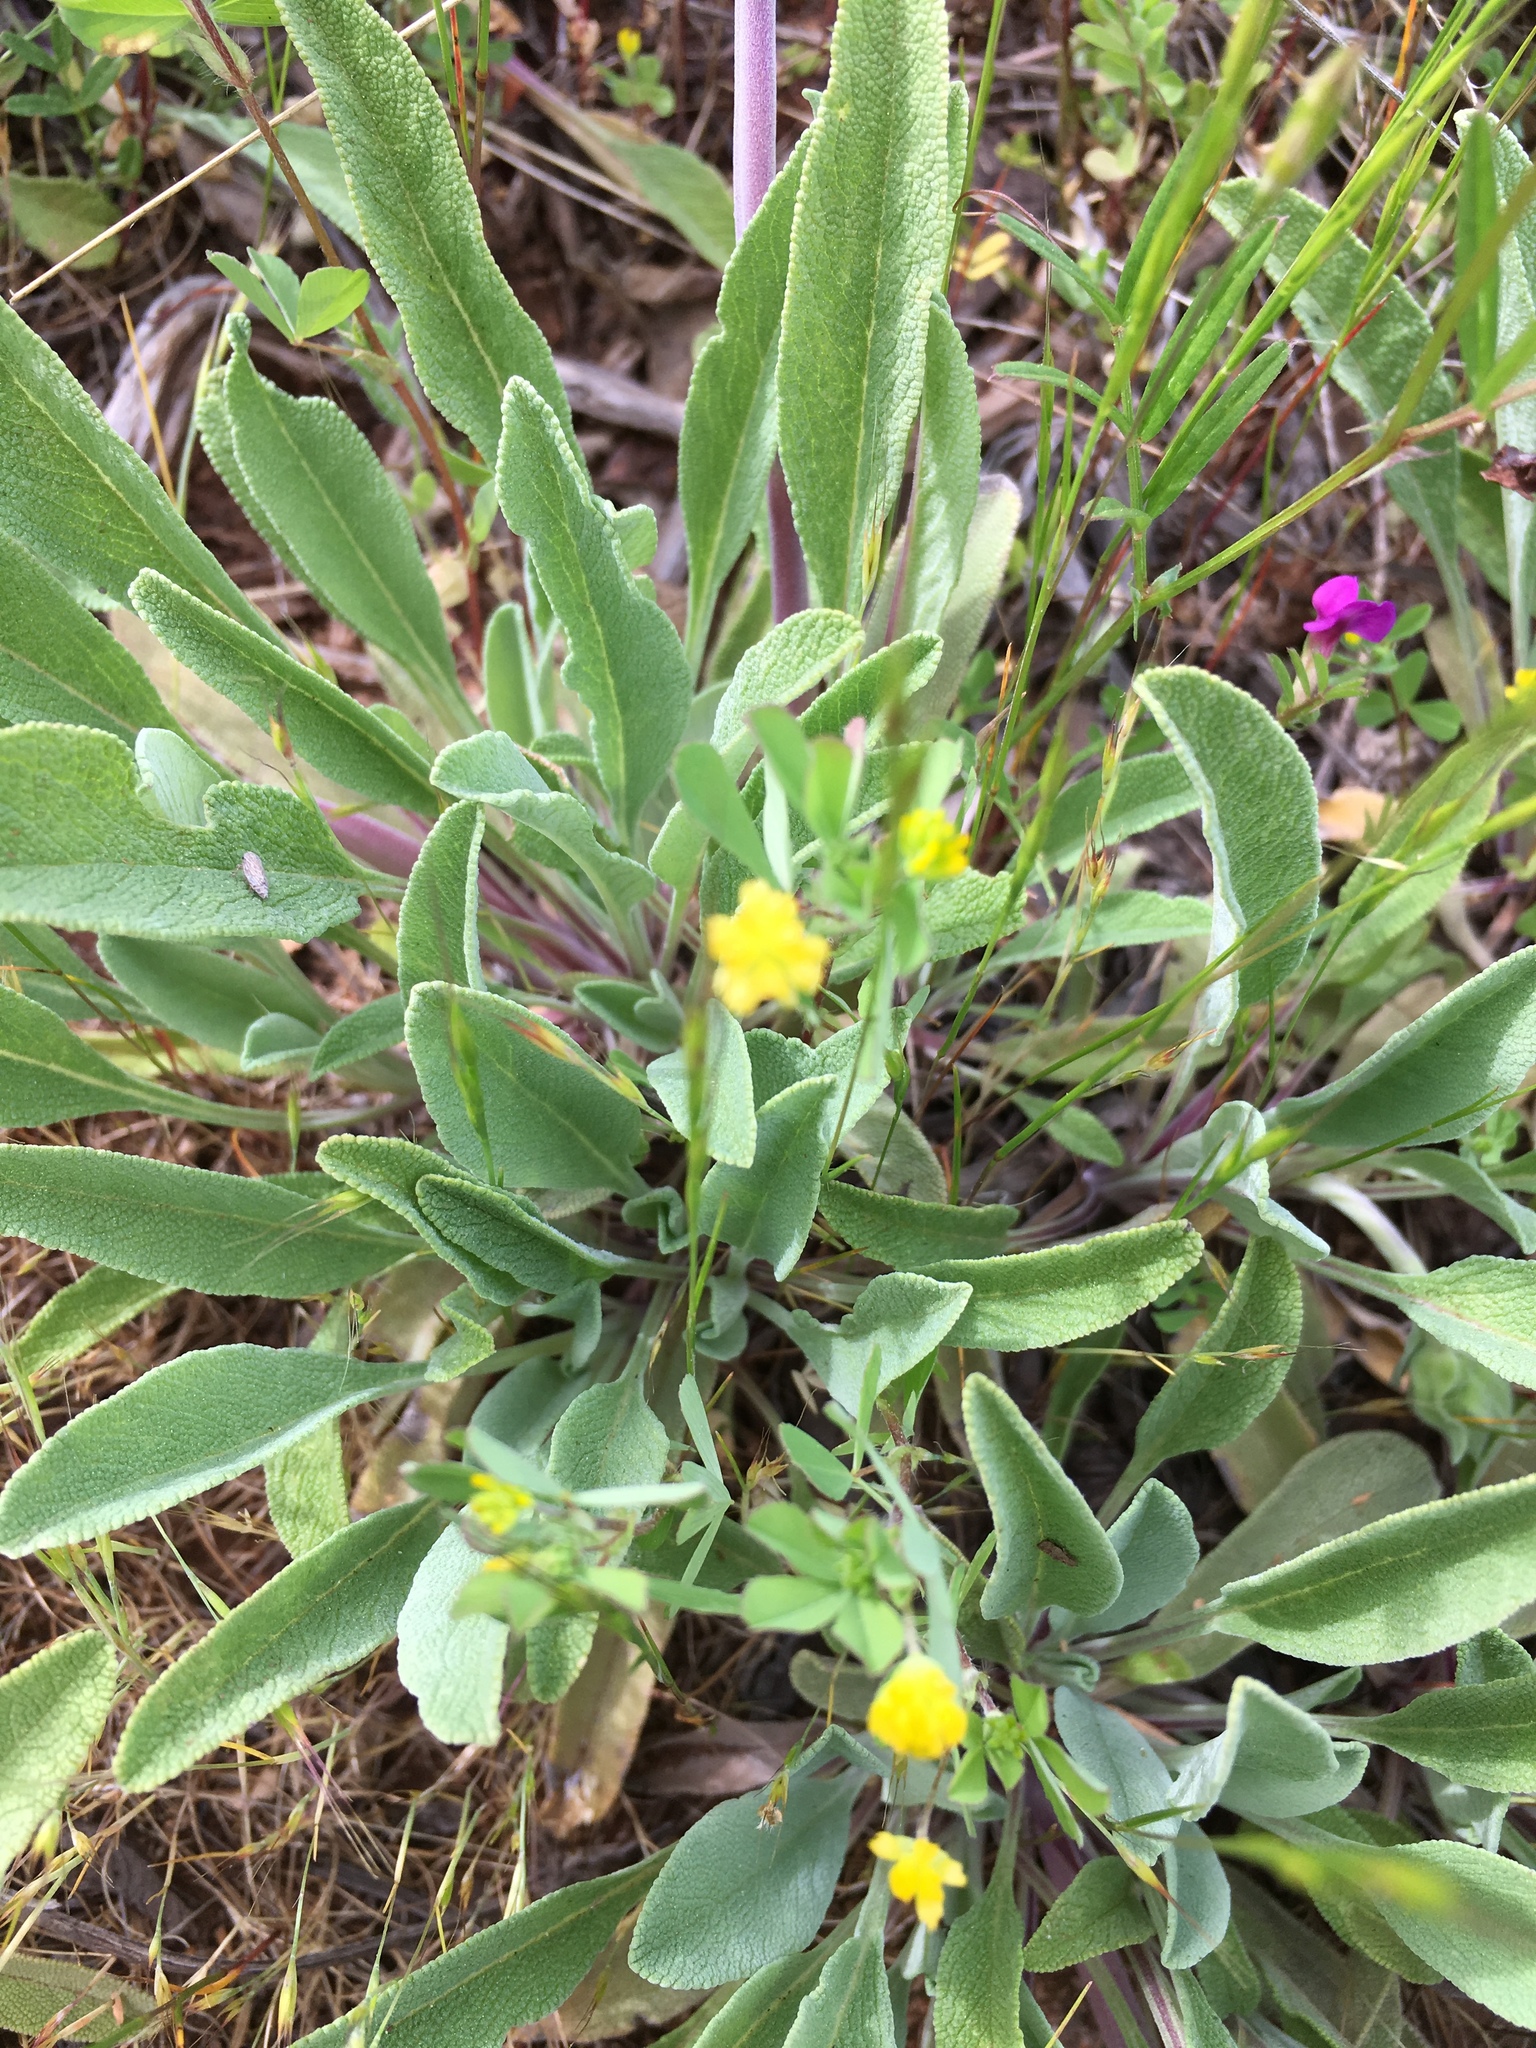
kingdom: Plantae
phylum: Tracheophyta
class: Magnoliopsida
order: Lamiales
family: Lamiaceae
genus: Salvia
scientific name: Salvia sonomensis
